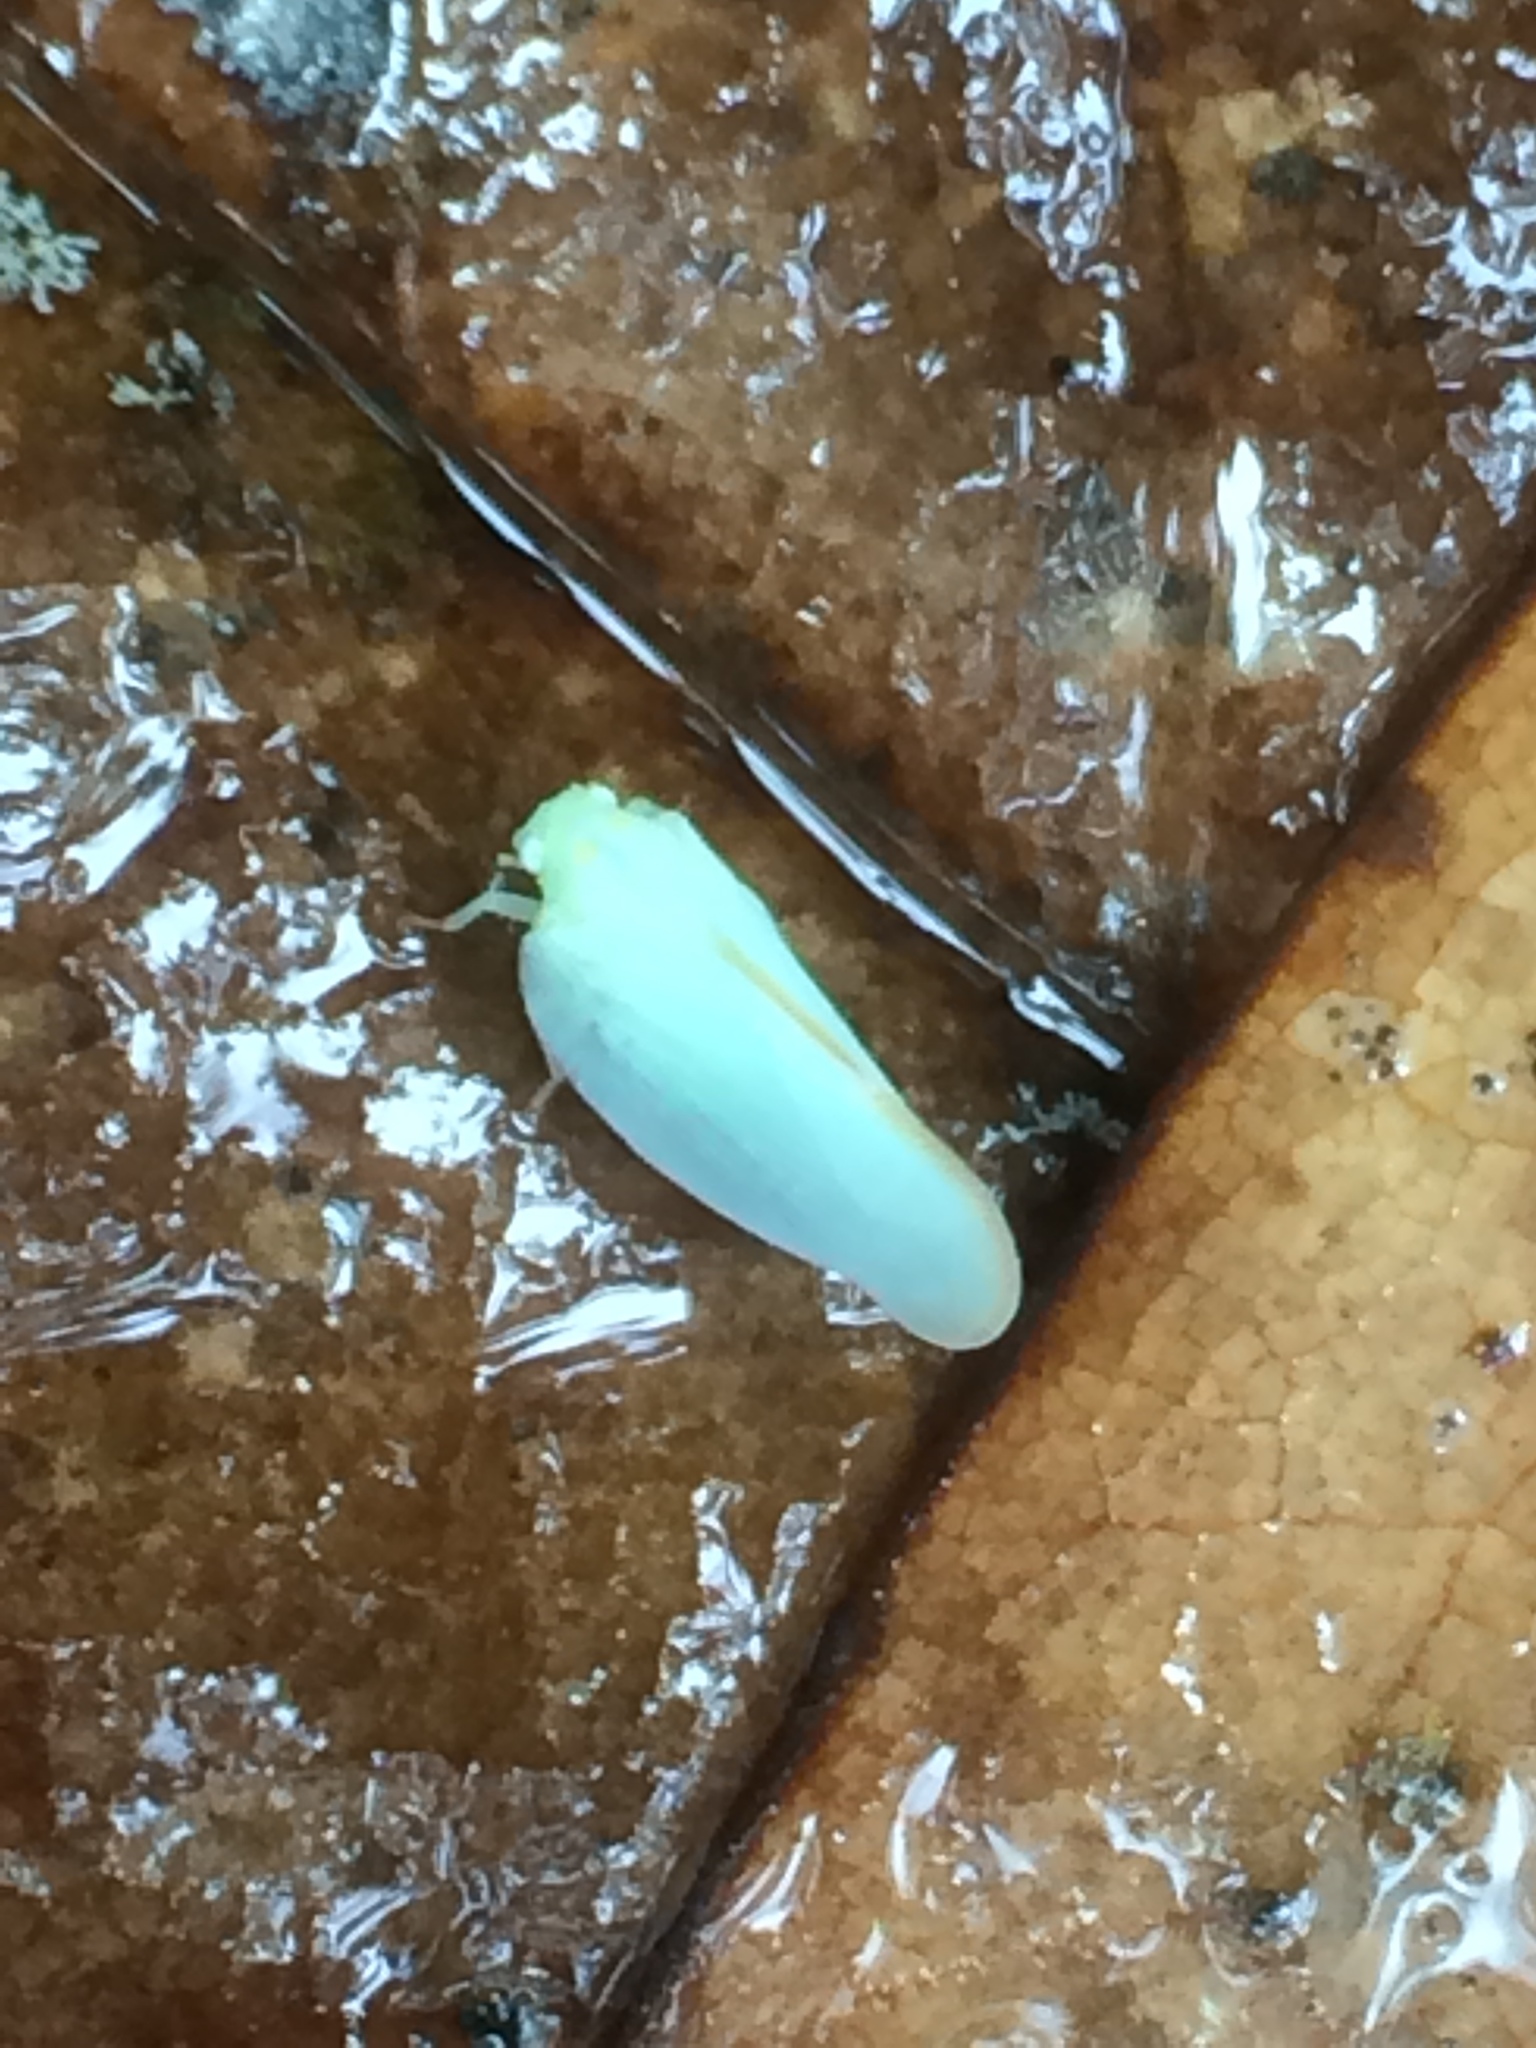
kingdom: Animalia
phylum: Arthropoda
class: Insecta
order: Hemiptera
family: Flatidae
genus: Ormenoides
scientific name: Ormenoides venusta
